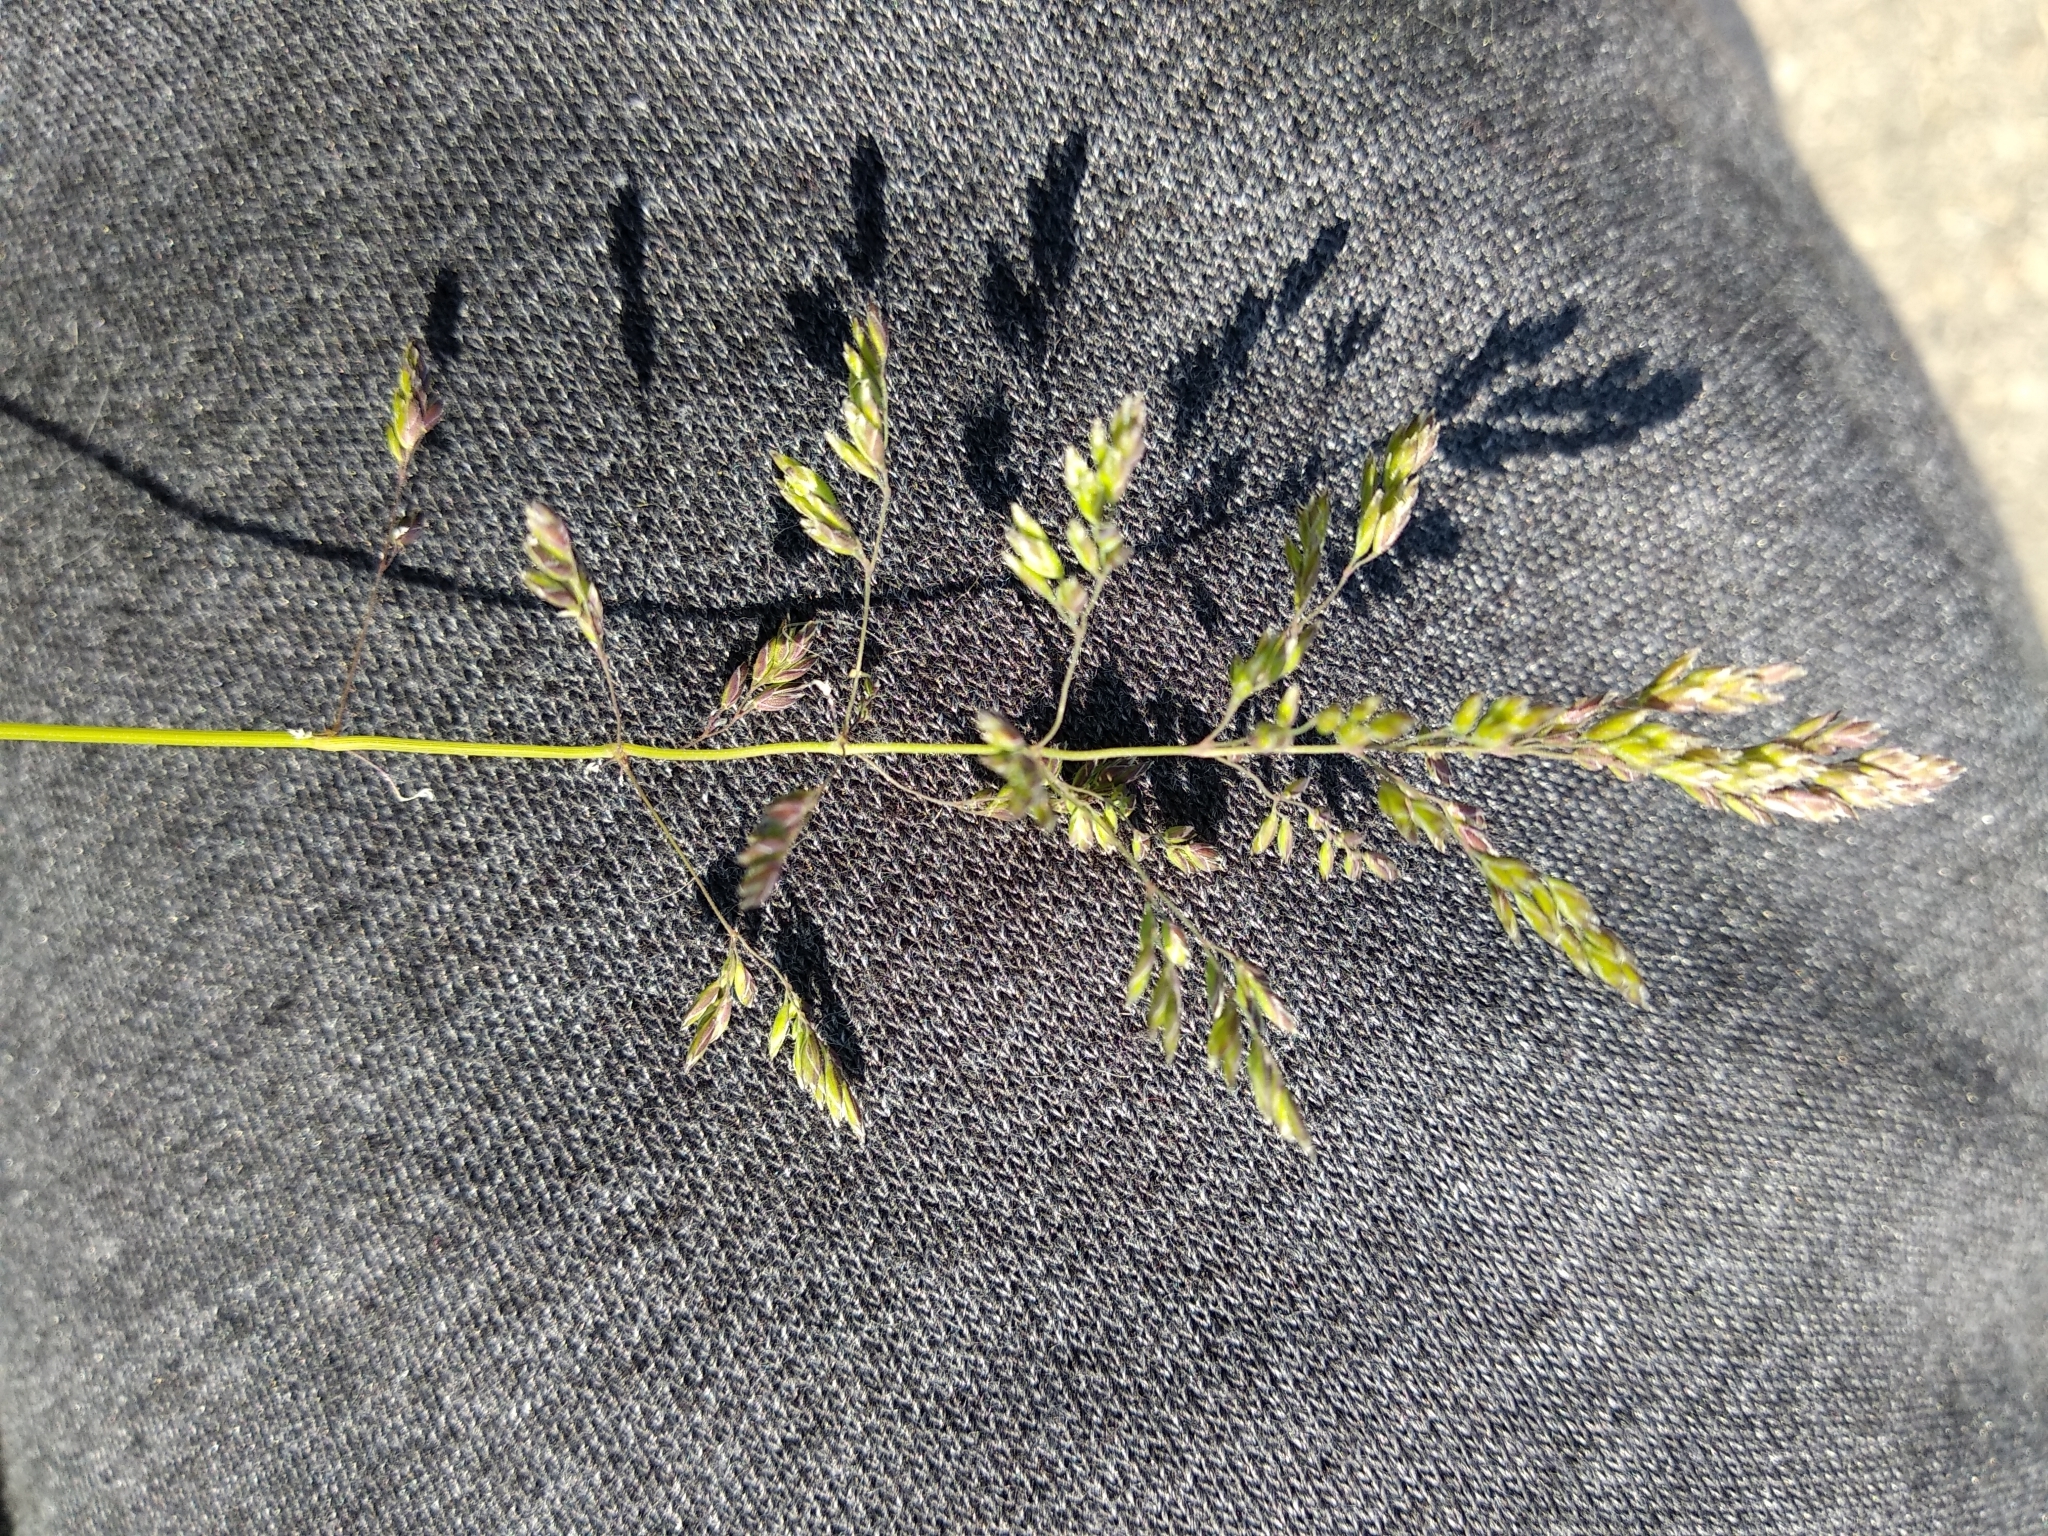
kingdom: Plantae
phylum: Tracheophyta
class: Liliopsida
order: Poales
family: Poaceae
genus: Poa
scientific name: Poa pratensis
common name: Kentucky bluegrass
